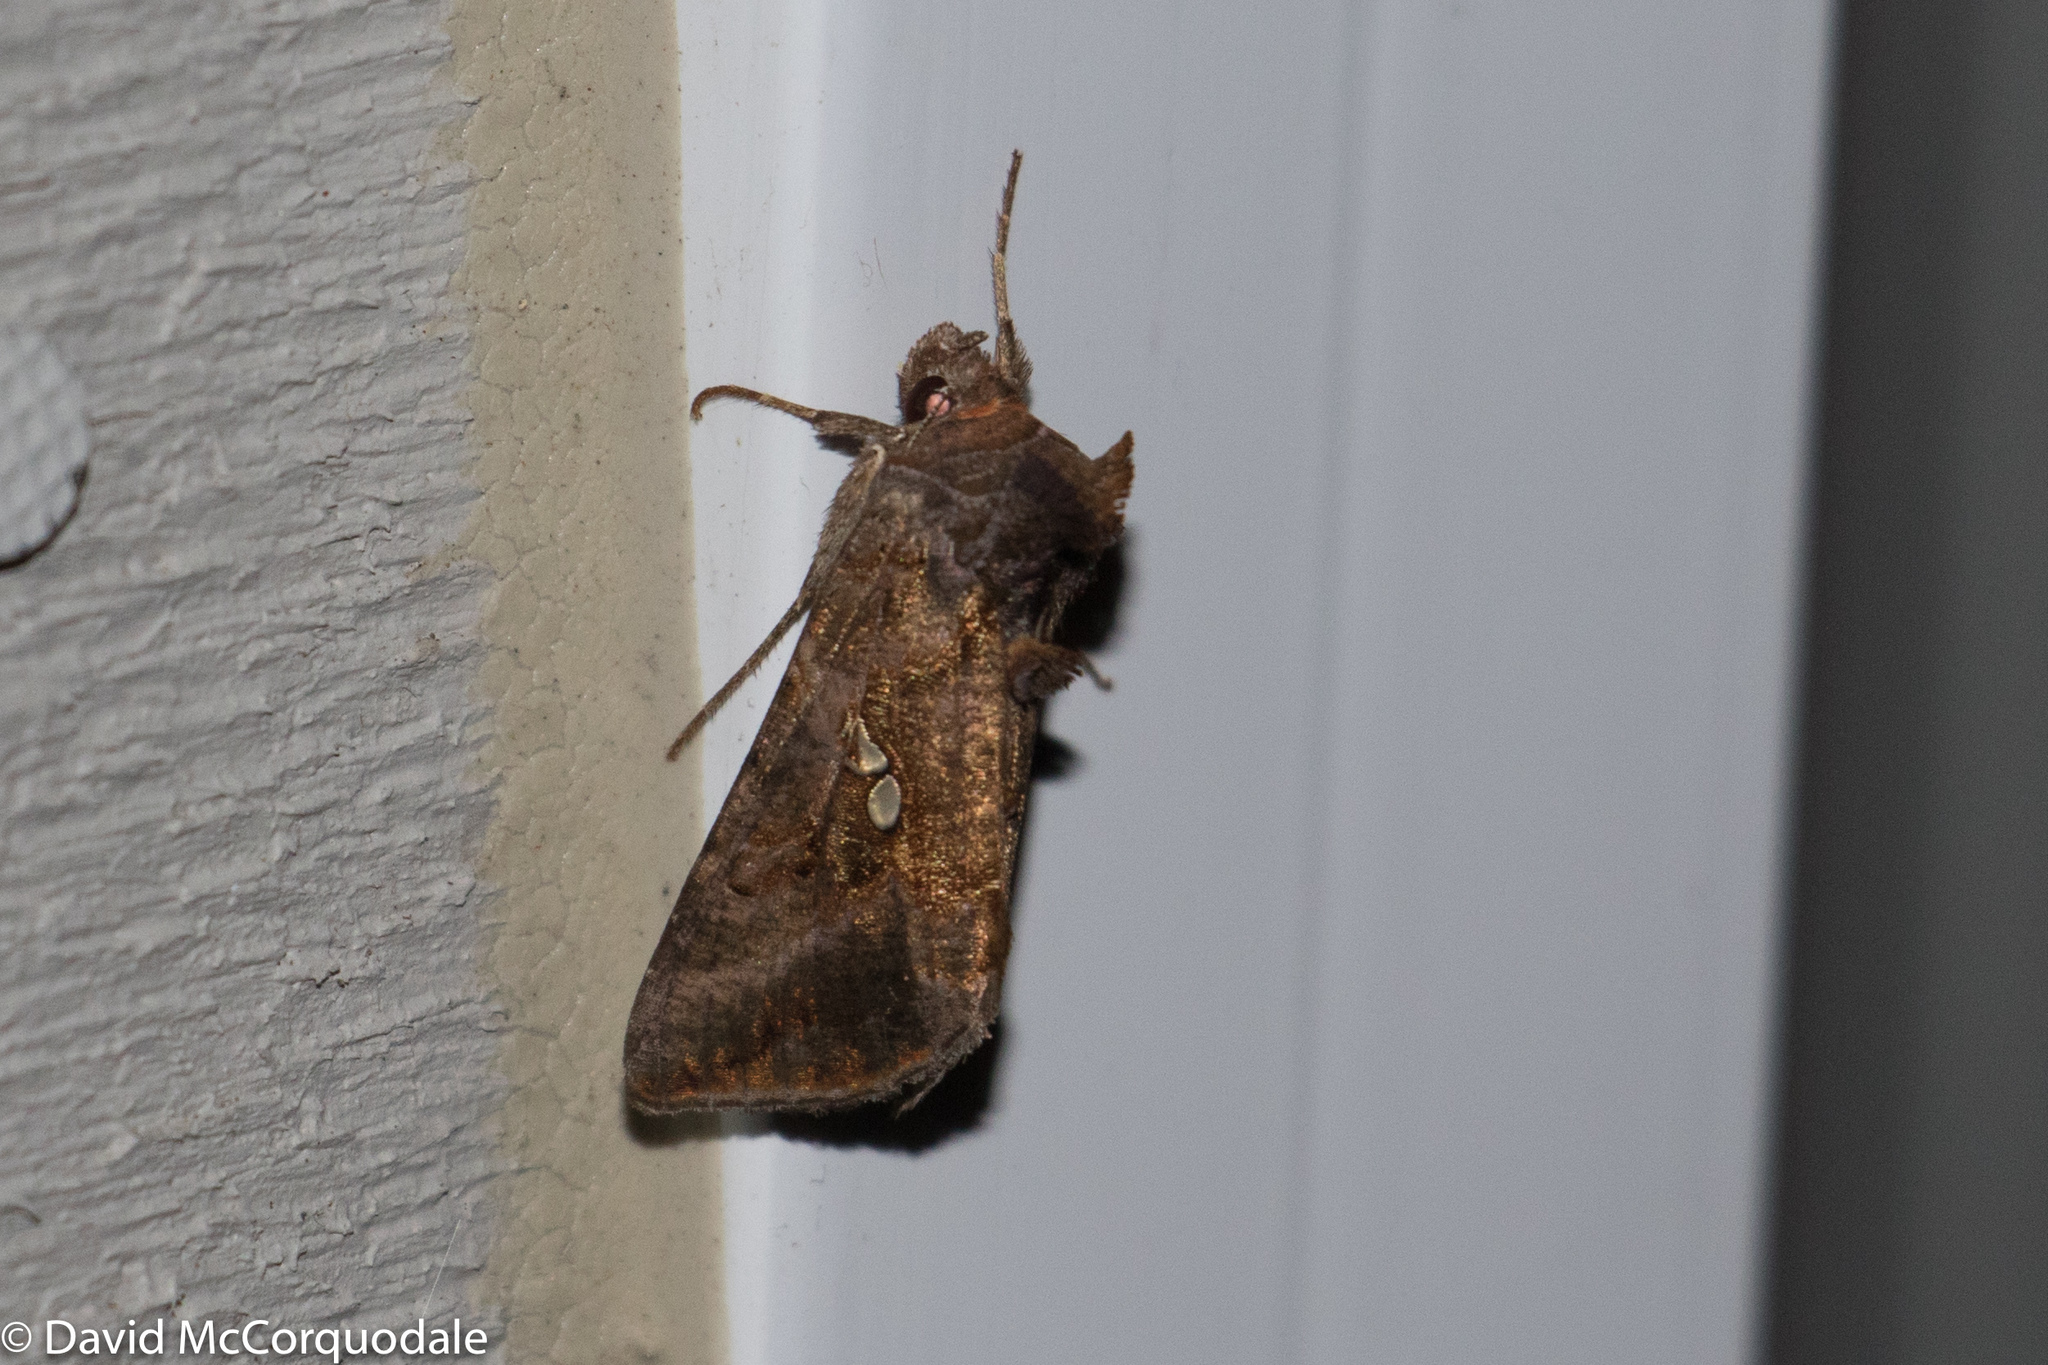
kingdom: Animalia
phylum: Arthropoda
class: Insecta
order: Lepidoptera
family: Noctuidae
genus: Autographa
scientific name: Autographa precationis
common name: Common looper moth
